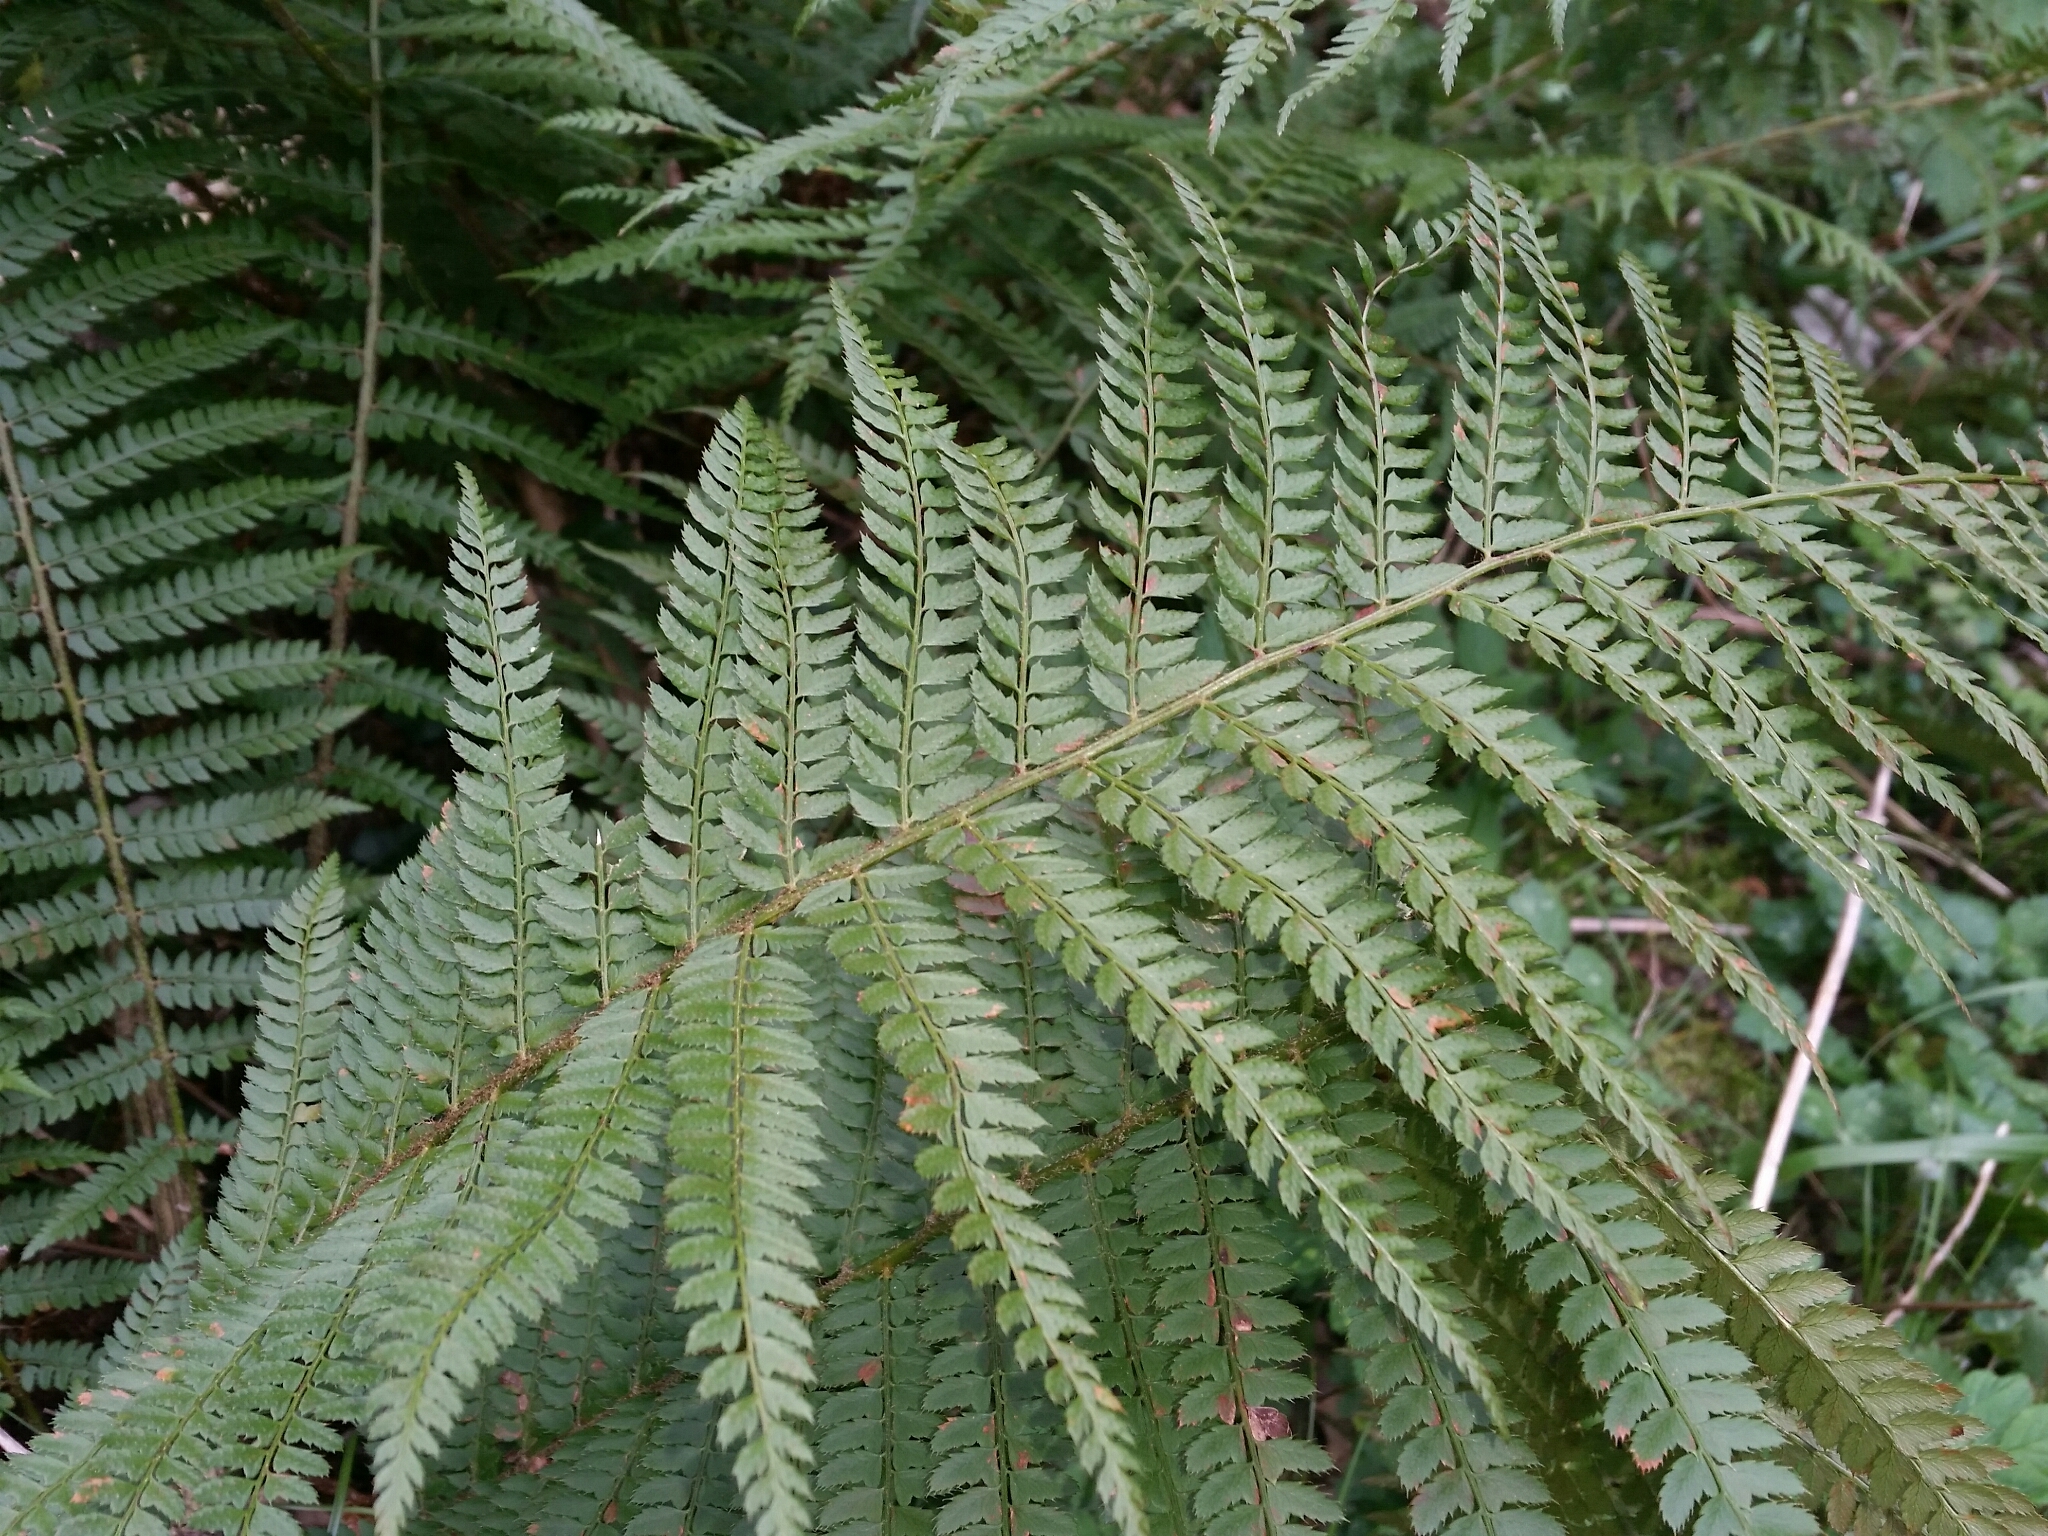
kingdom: Plantae
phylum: Tracheophyta
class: Polypodiopsida
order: Polypodiales
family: Dryopteridaceae
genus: Polystichum
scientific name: Polystichum setiferum
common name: Soft shield-fern
